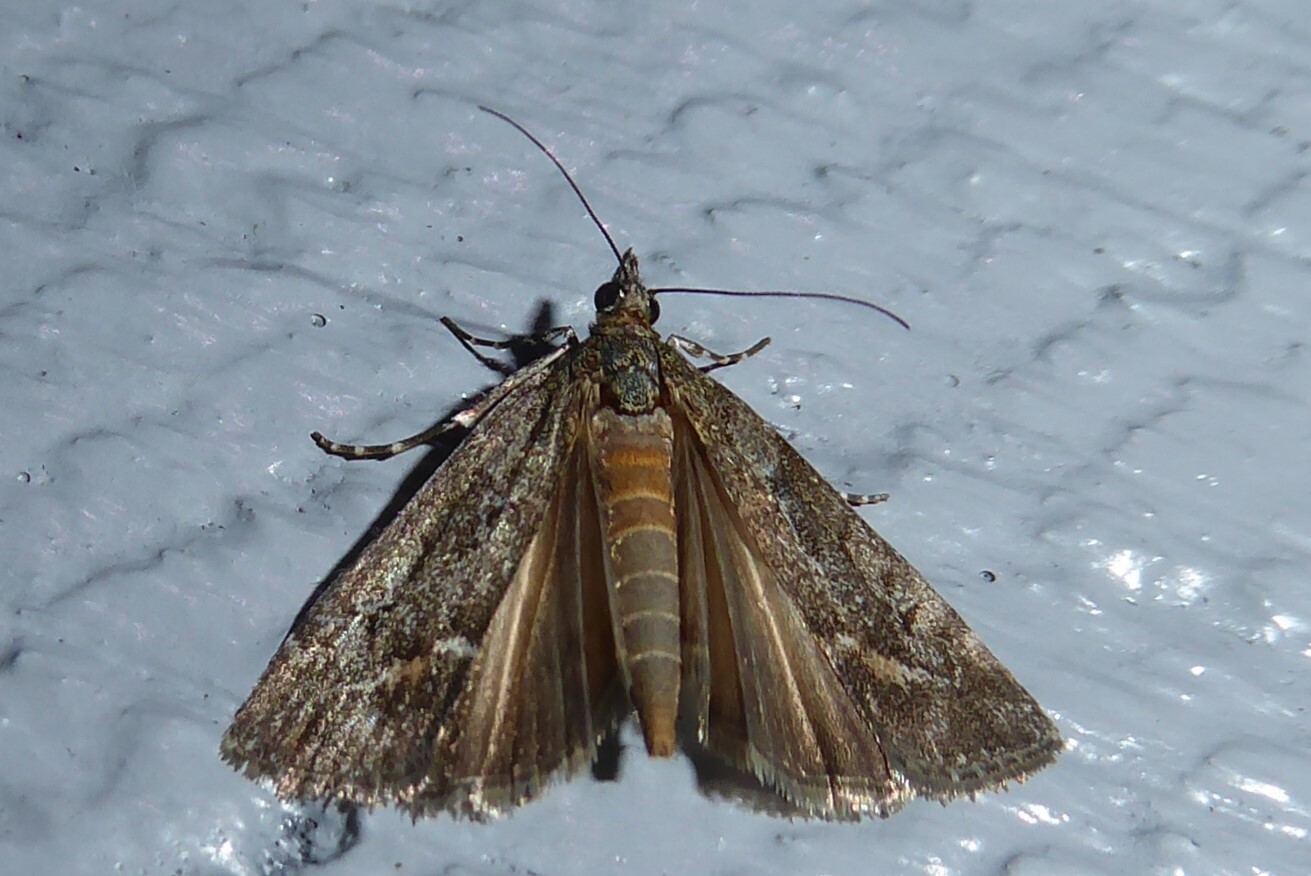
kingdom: Animalia
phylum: Arthropoda
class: Insecta
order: Lepidoptera
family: Crambidae
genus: Eudonia
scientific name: Eudonia submarginalis
